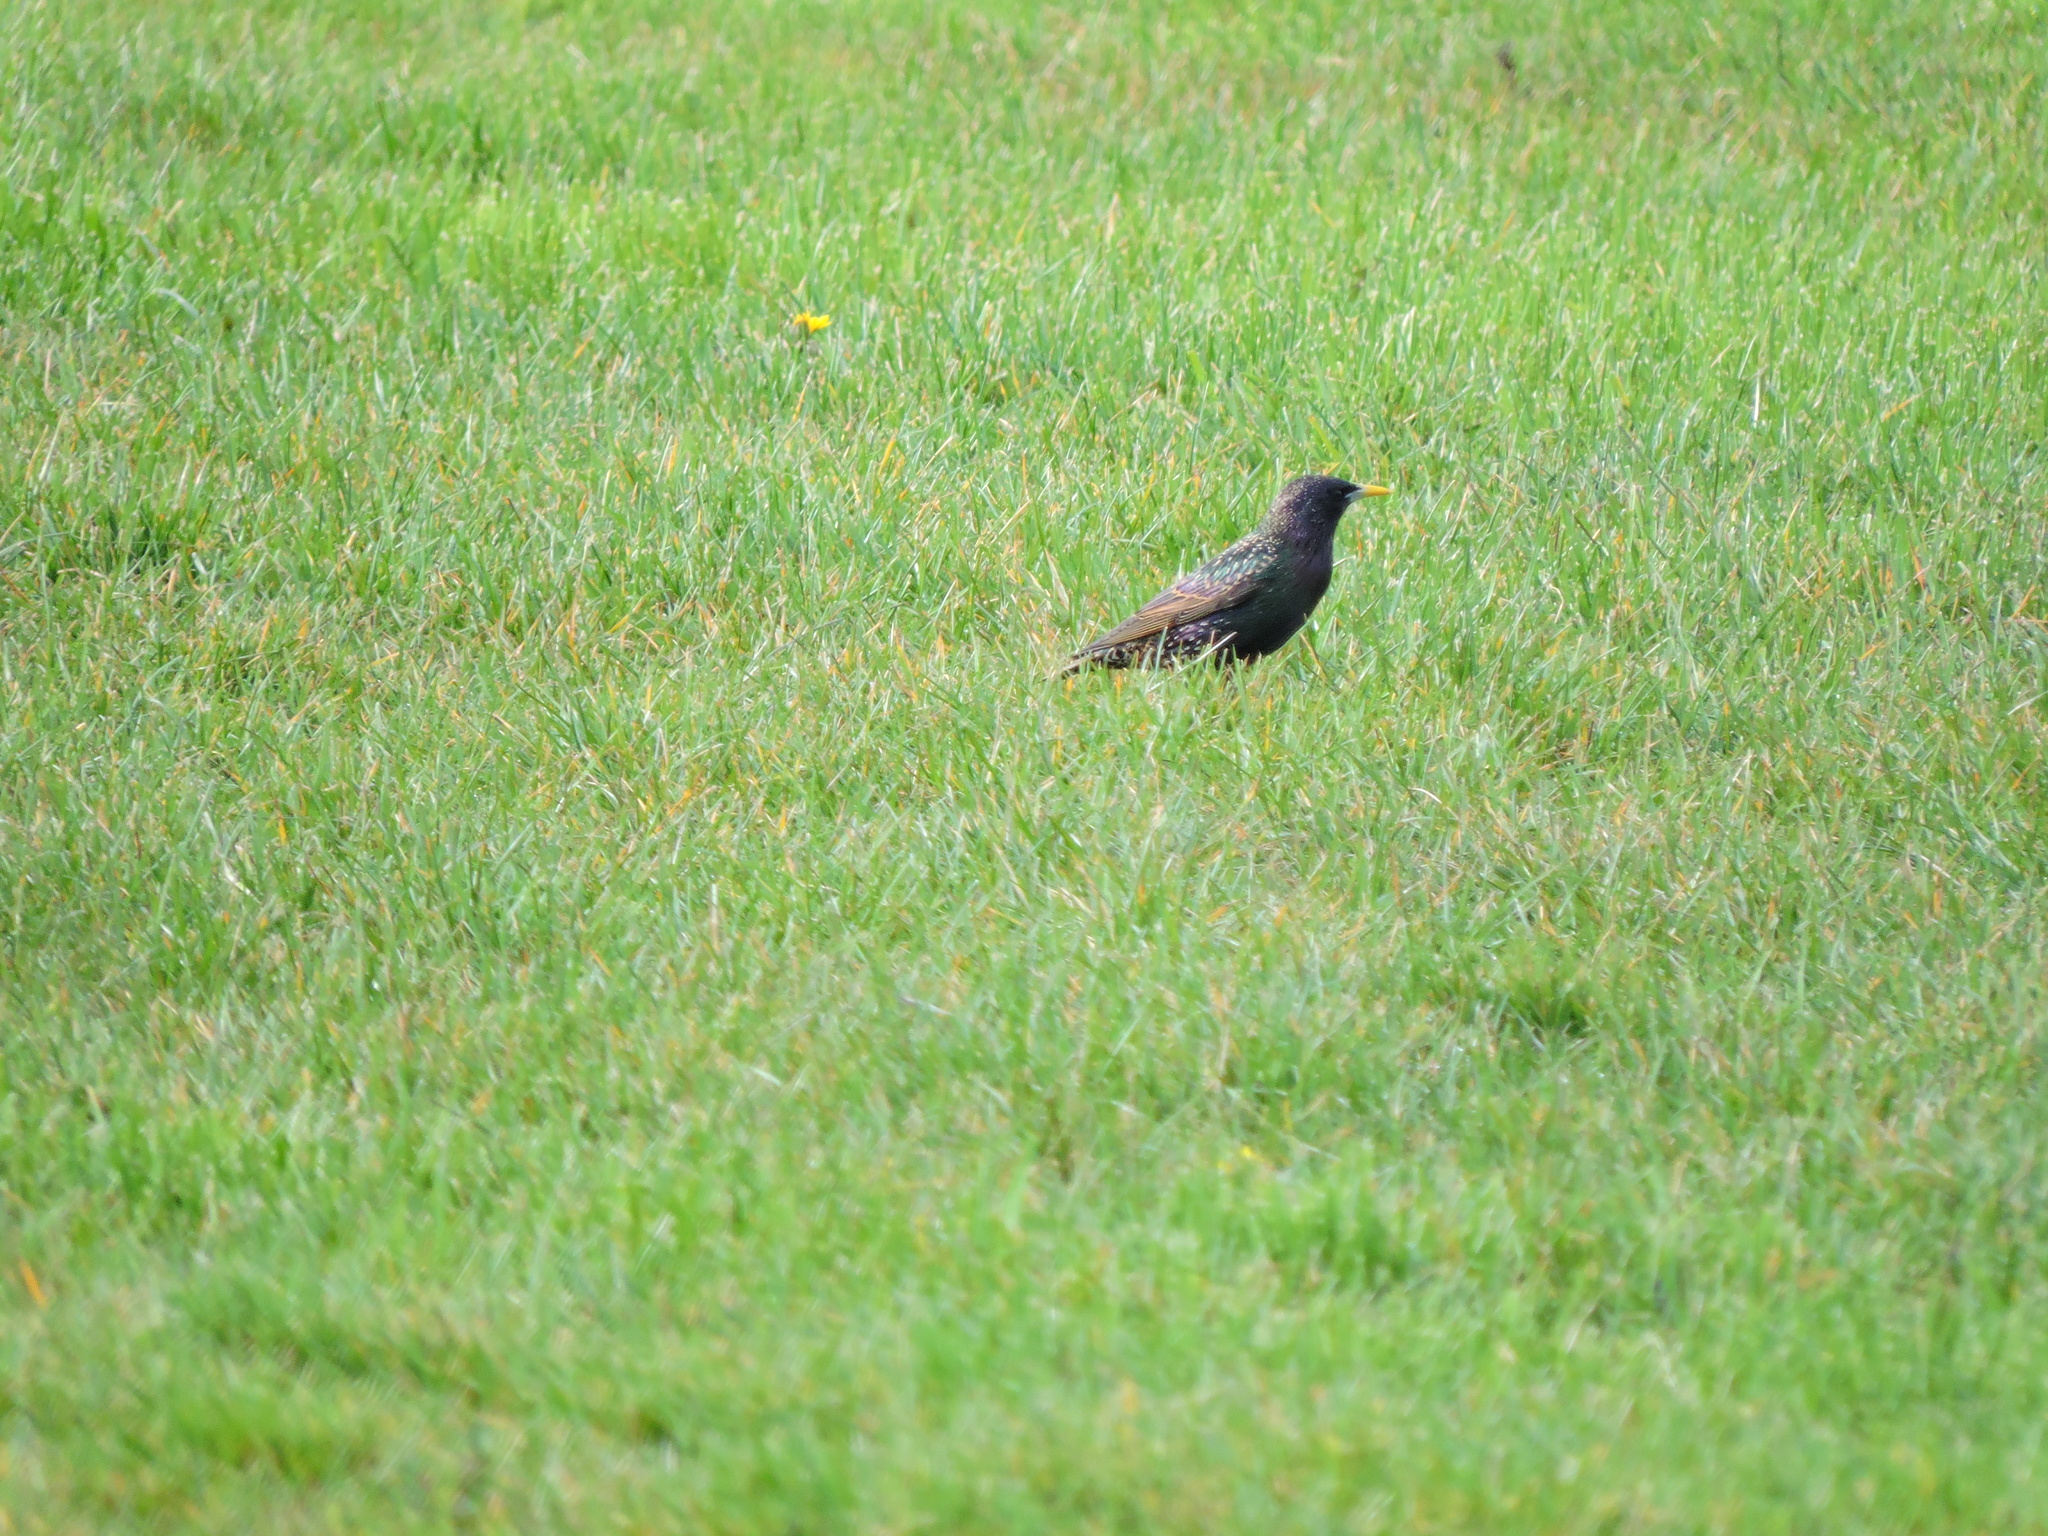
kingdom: Animalia
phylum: Chordata
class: Aves
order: Passeriformes
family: Sturnidae
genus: Sturnus
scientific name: Sturnus vulgaris
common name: Common starling
